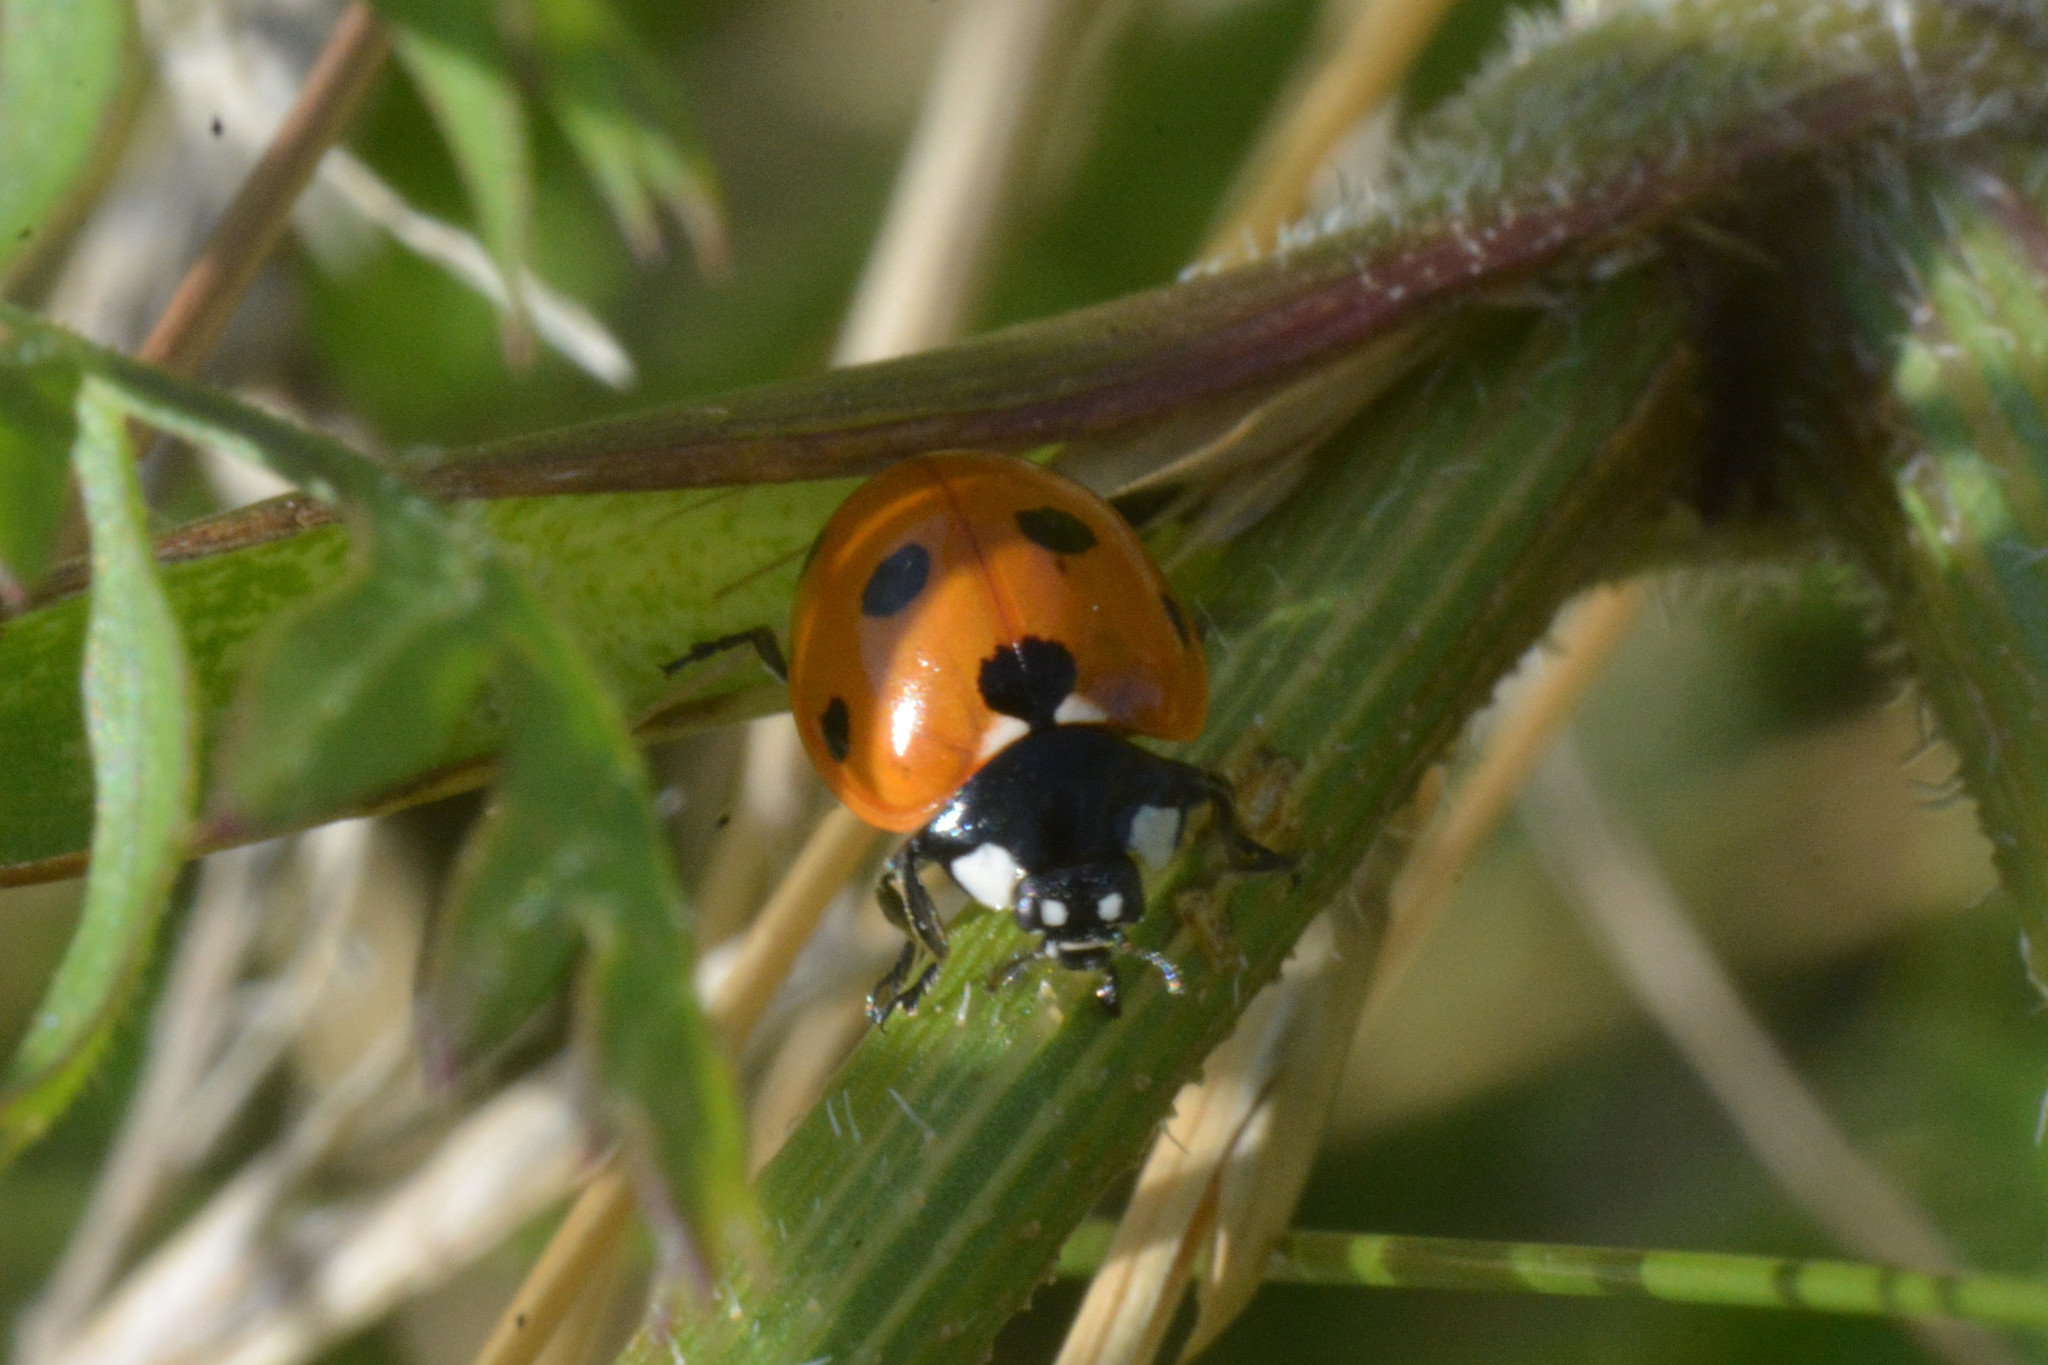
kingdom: Animalia
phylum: Arthropoda
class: Insecta
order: Coleoptera
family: Coccinellidae
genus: Coccinella
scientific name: Coccinella septempunctata
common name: Sevenspotted lady beetle
